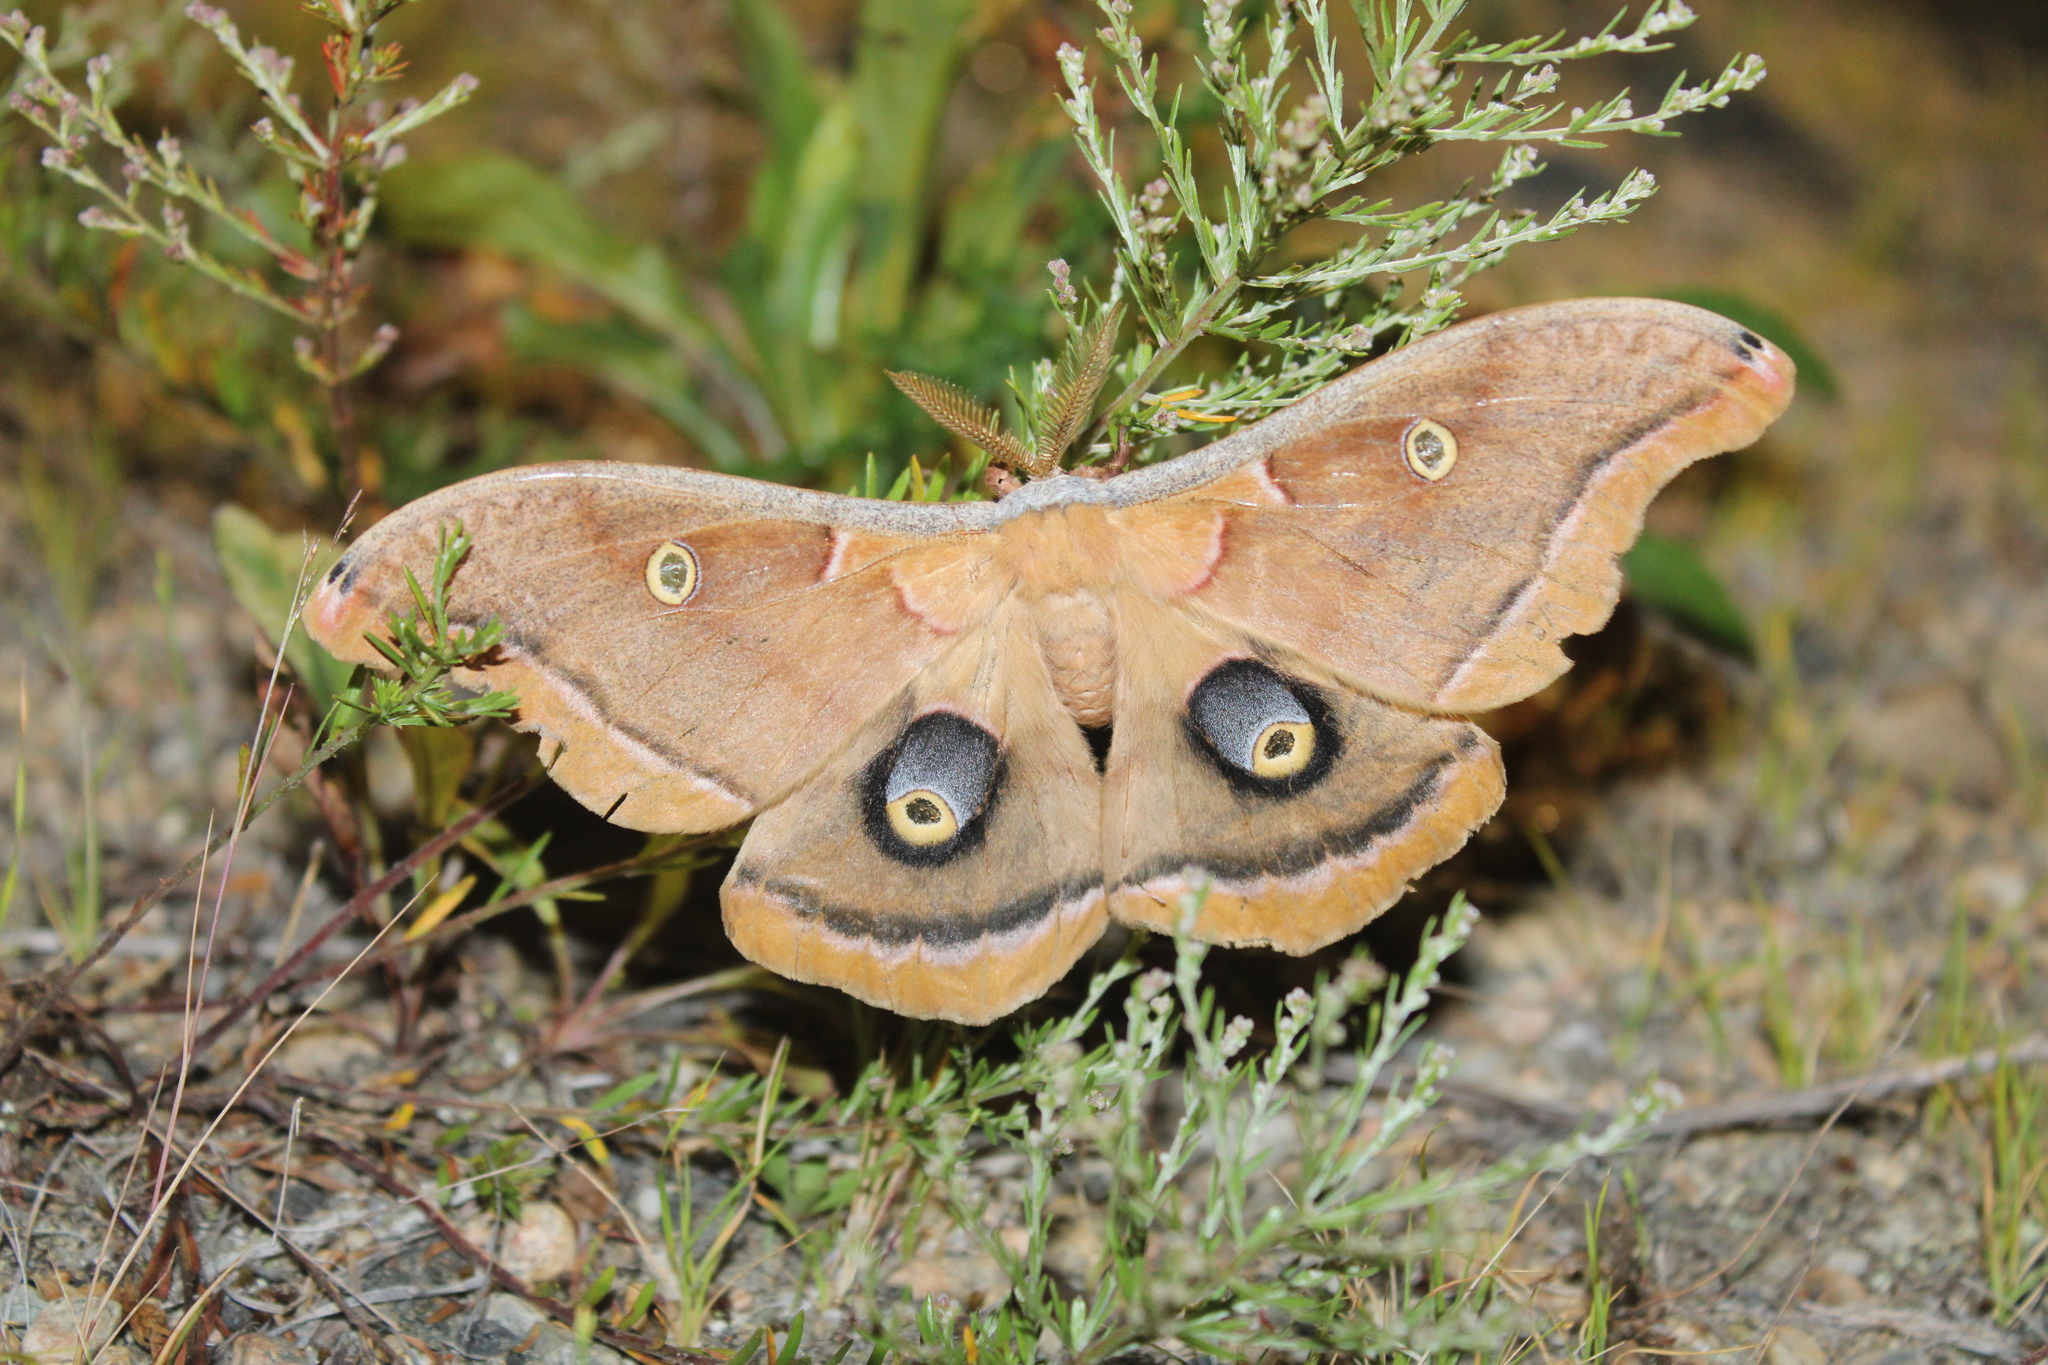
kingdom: Animalia
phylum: Arthropoda
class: Insecta
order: Lepidoptera
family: Saturniidae
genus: Antheraea
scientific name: Antheraea polyphemus
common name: Polyphemus moth
